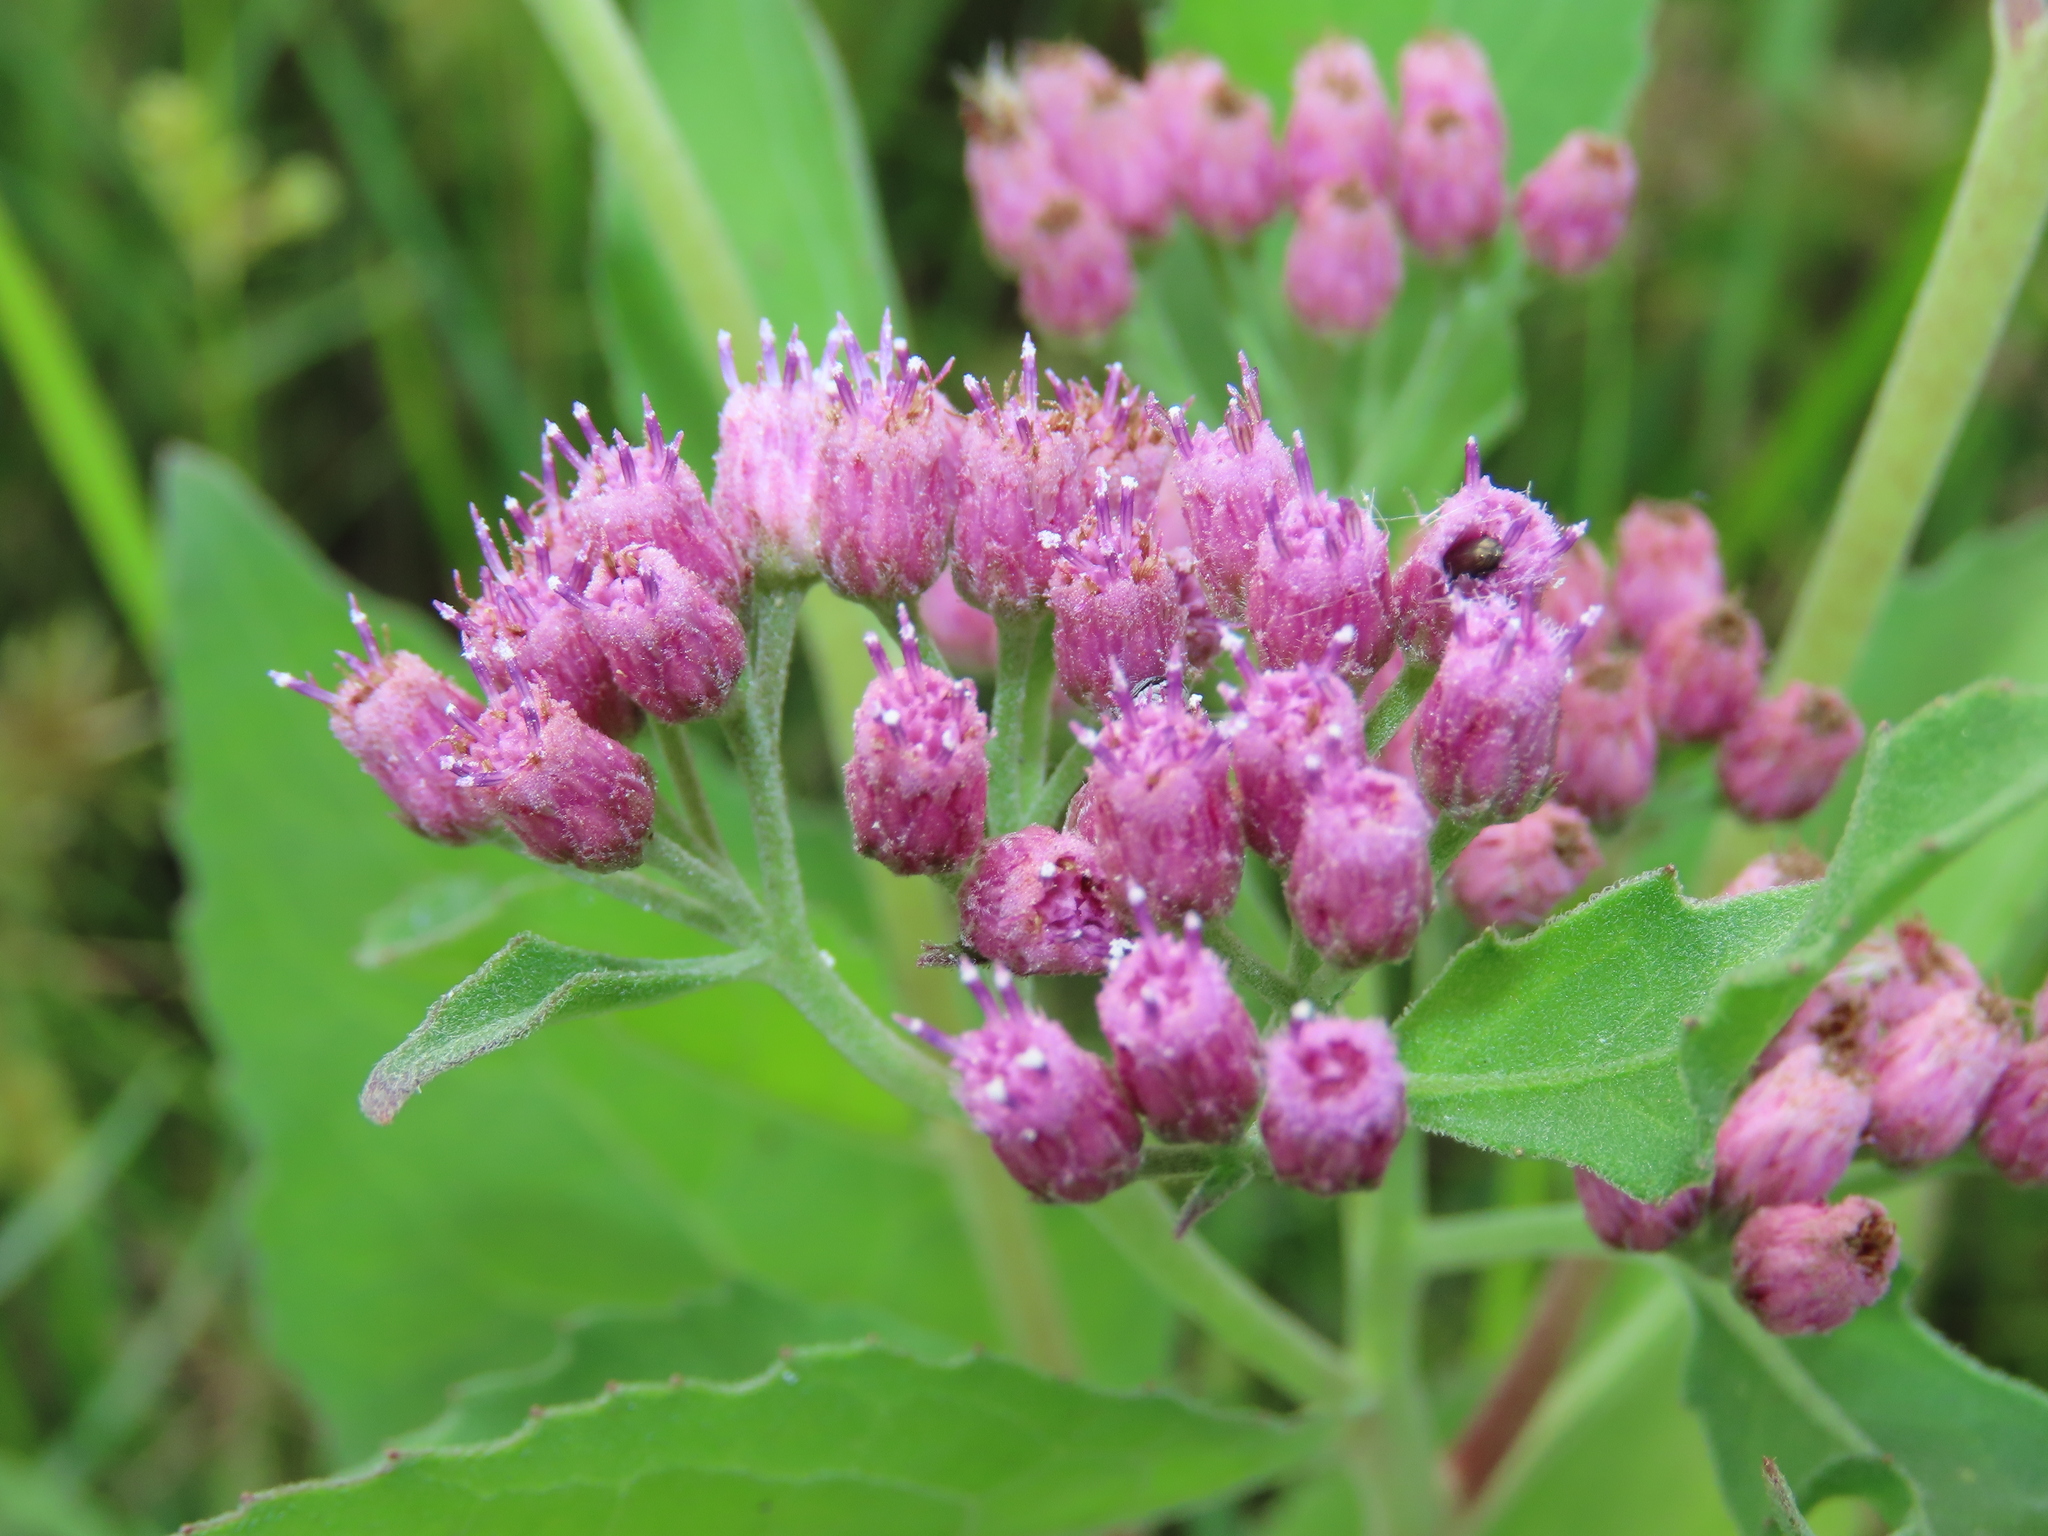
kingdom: Plantae
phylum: Tracheophyta
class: Magnoliopsida
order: Asterales
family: Asteraceae
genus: Pluchea
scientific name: Pluchea odorata
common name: Saltmarsh fleabane
